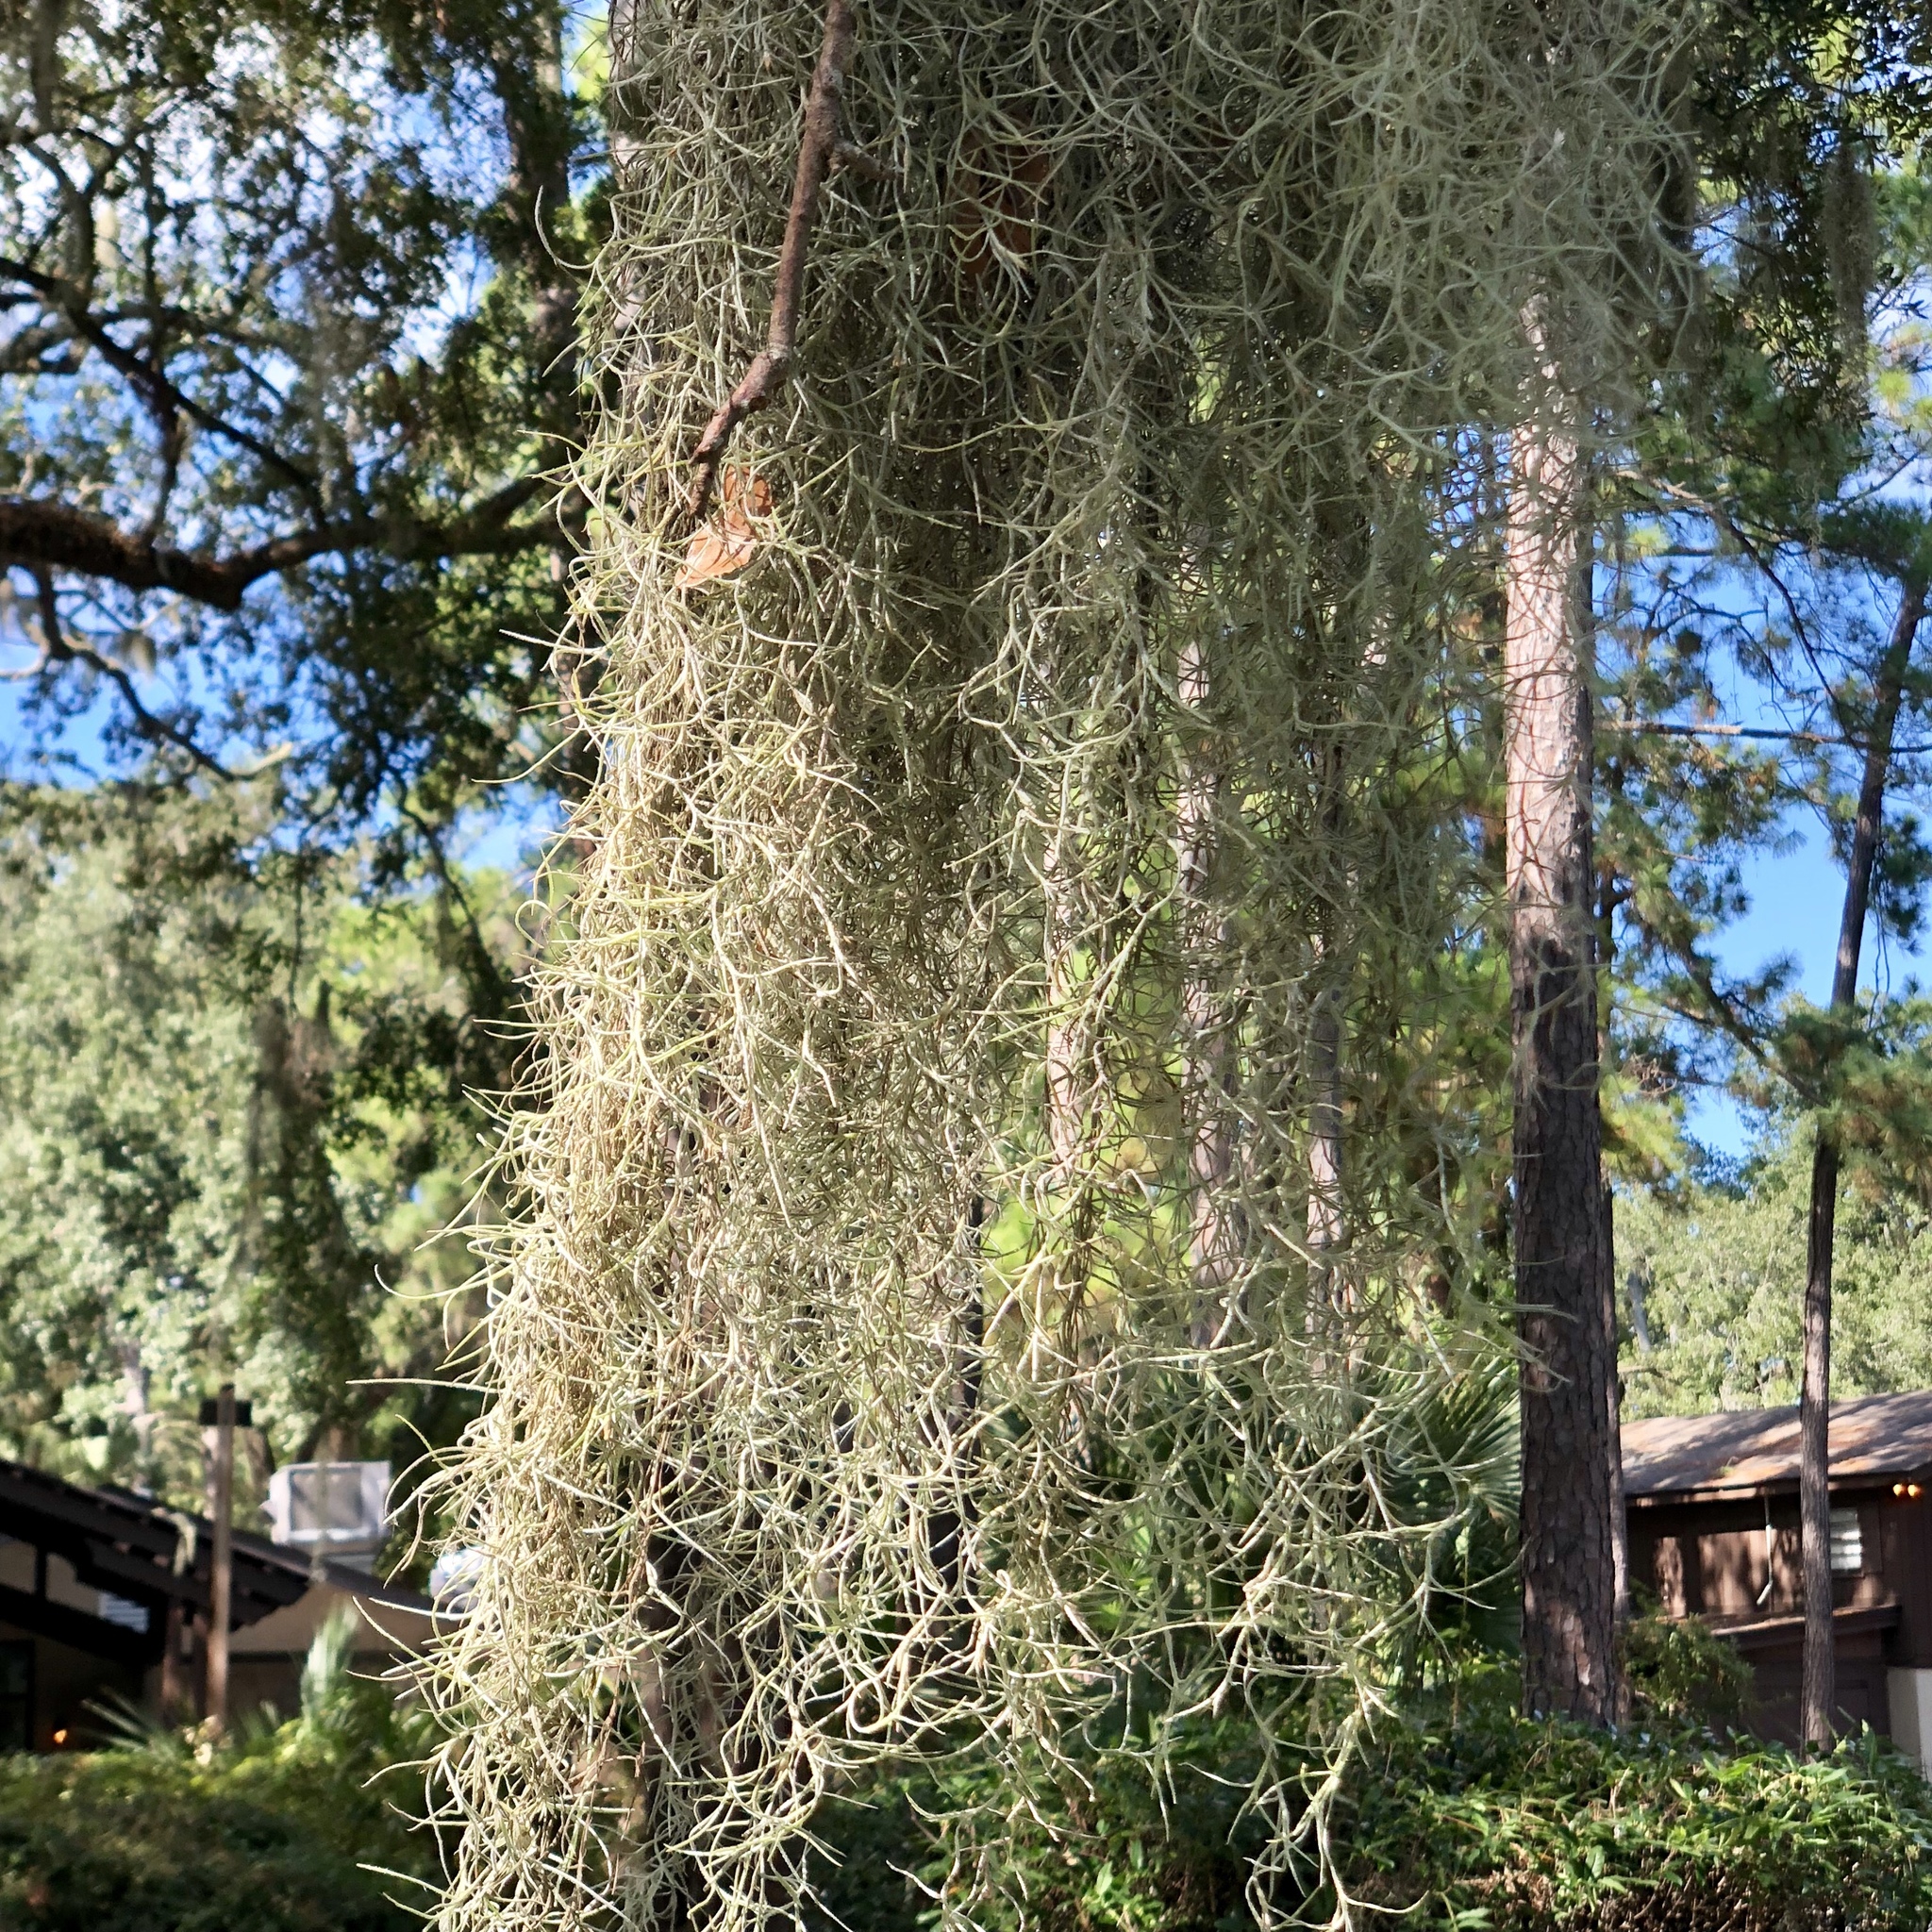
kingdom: Plantae
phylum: Tracheophyta
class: Liliopsida
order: Poales
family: Bromeliaceae
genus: Tillandsia
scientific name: Tillandsia usneoides
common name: Spanish moss
